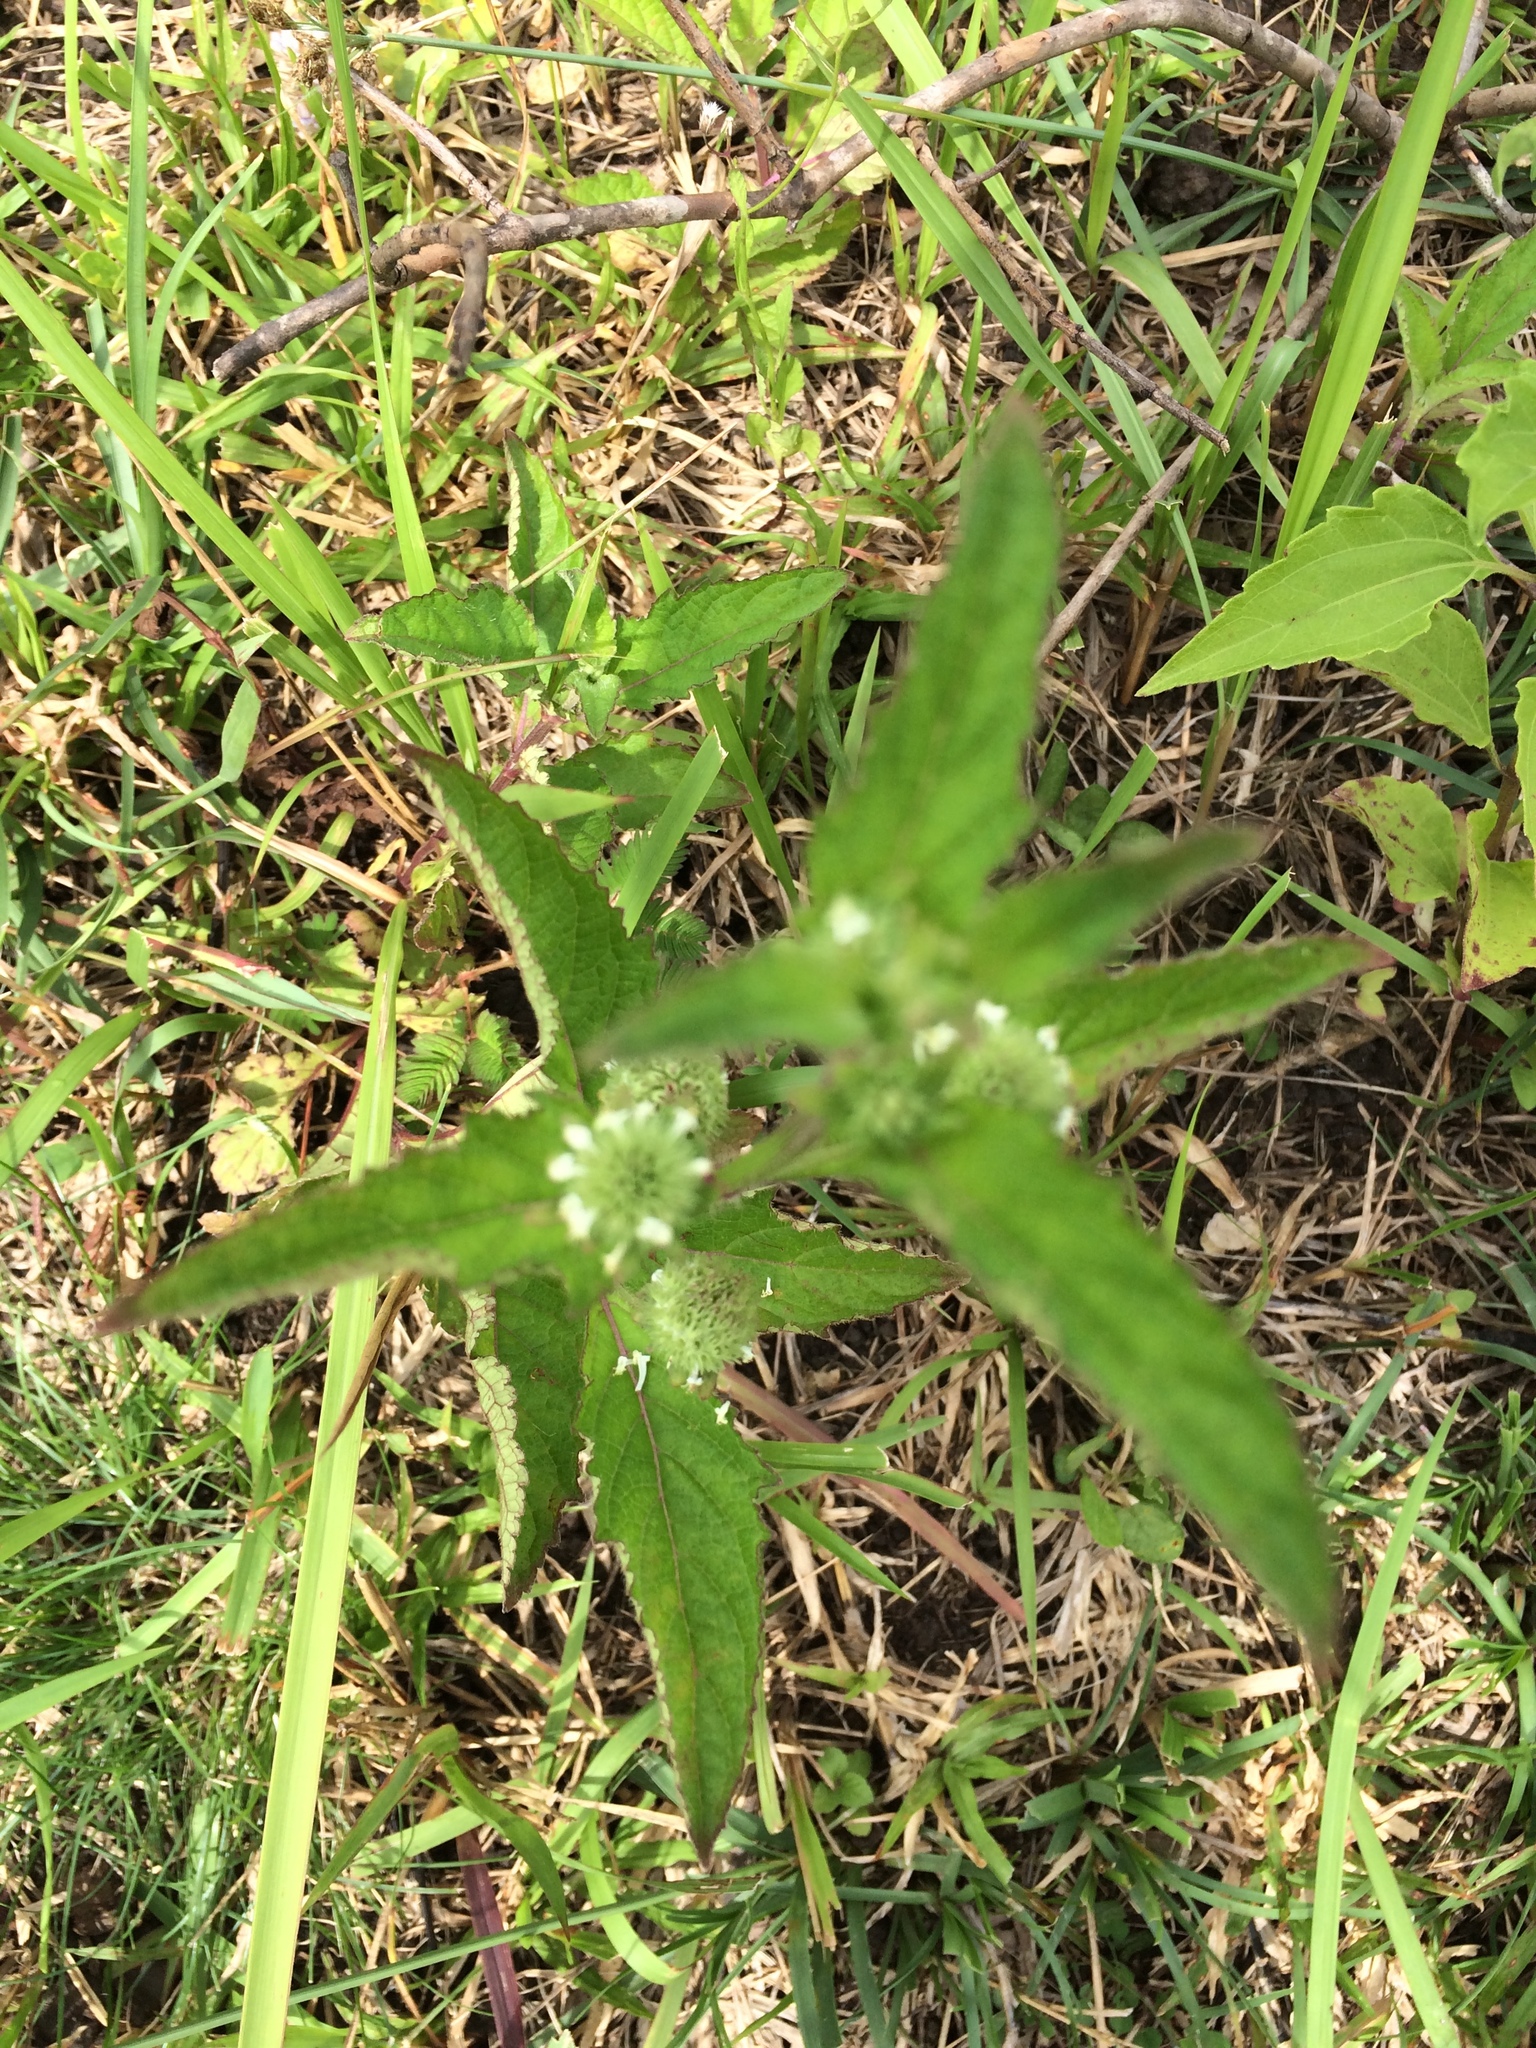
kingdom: Plantae
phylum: Tracheophyta
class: Magnoliopsida
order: Lamiales
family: Lamiaceae
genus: Hyptis
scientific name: Hyptis capitata
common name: False ironwort
